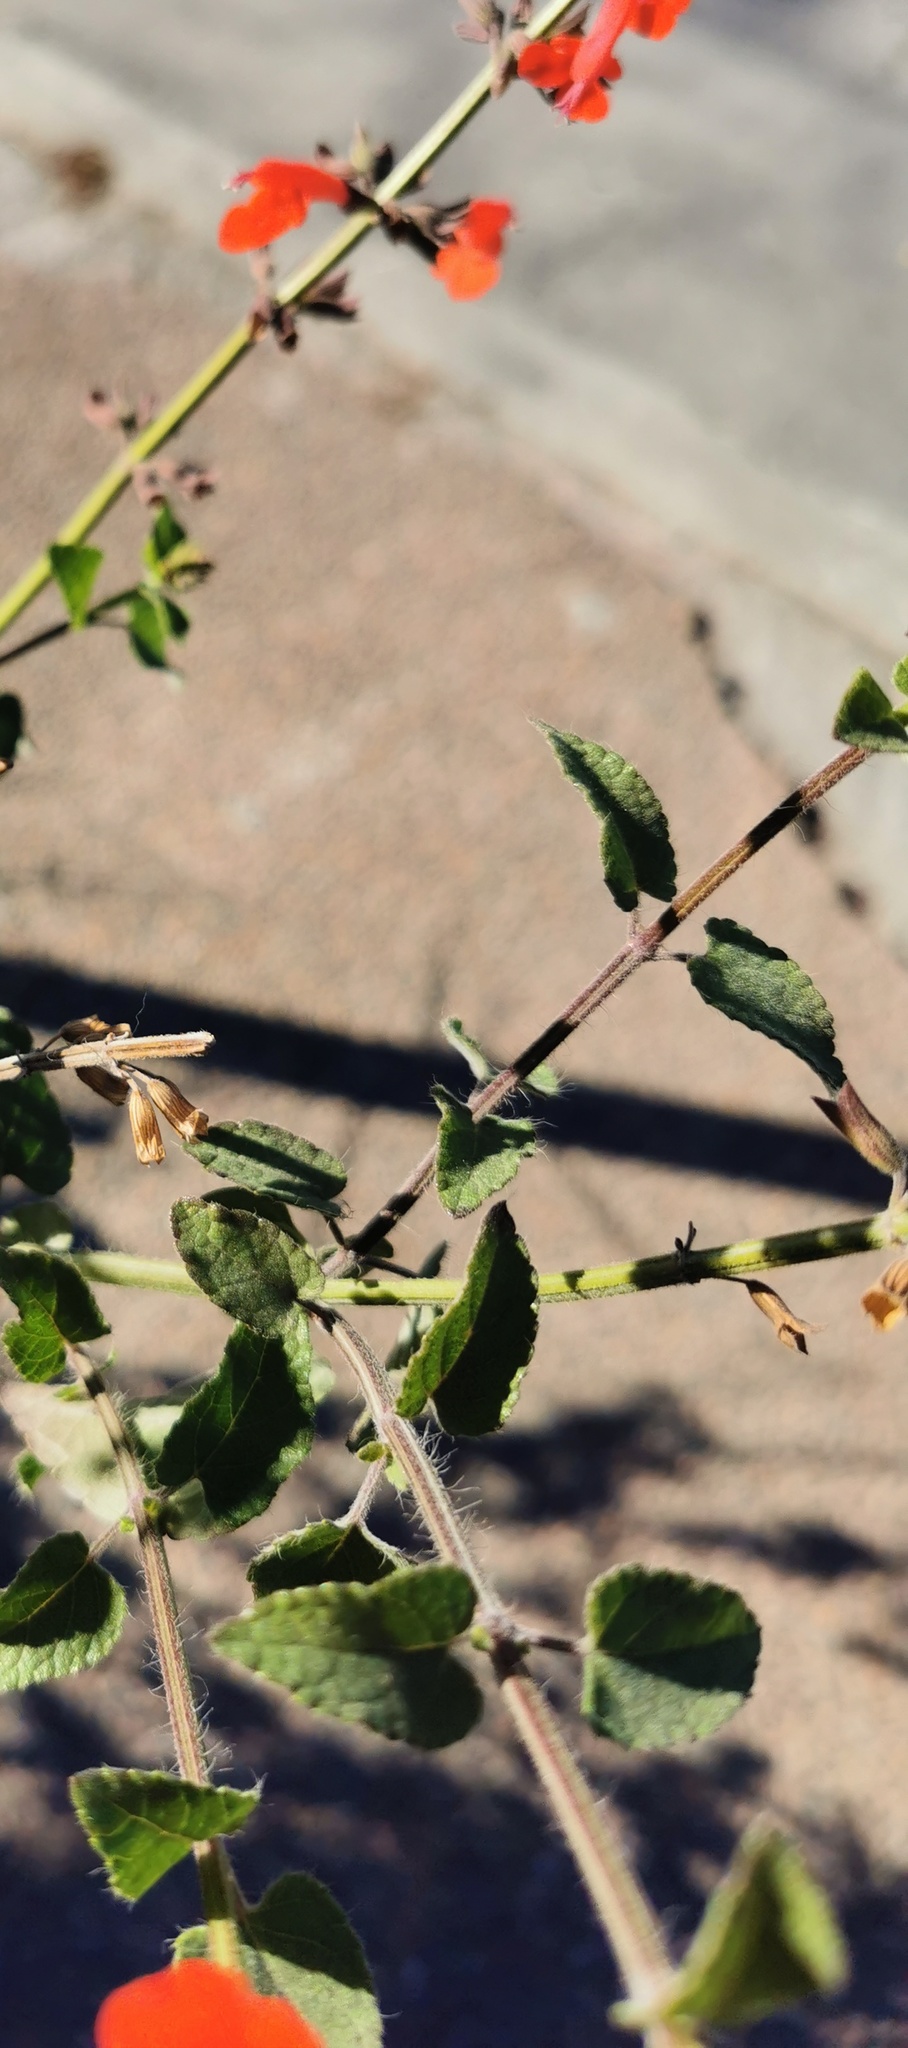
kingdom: Plantae
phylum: Tracheophyta
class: Magnoliopsida
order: Lamiales
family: Lamiaceae
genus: Salvia
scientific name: Salvia coccinea
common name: Blood sage
